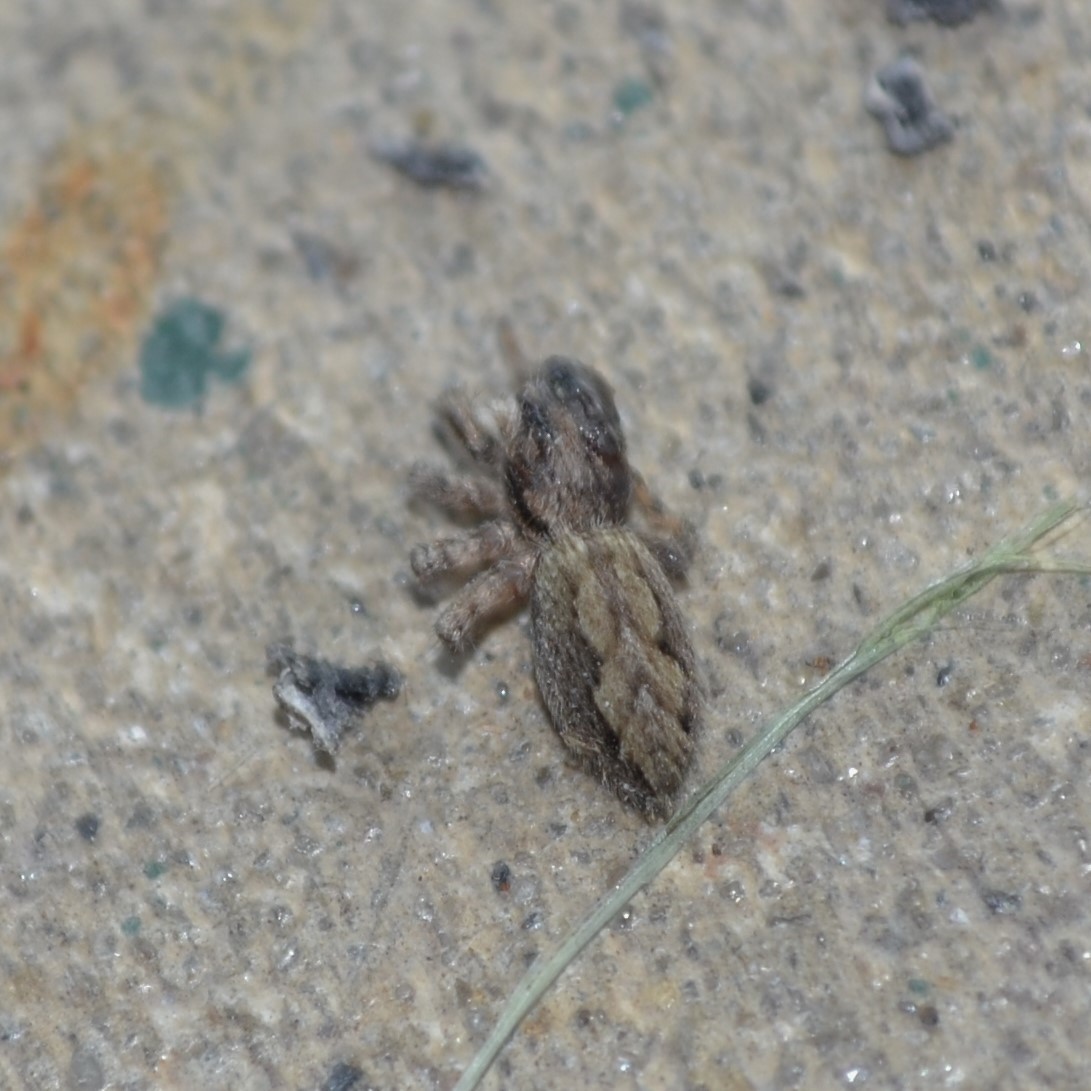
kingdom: Animalia
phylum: Arthropoda
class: Arachnida
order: Araneae
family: Salticidae
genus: Platycryptus
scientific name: Platycryptus undatus
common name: Tan jumping spider
